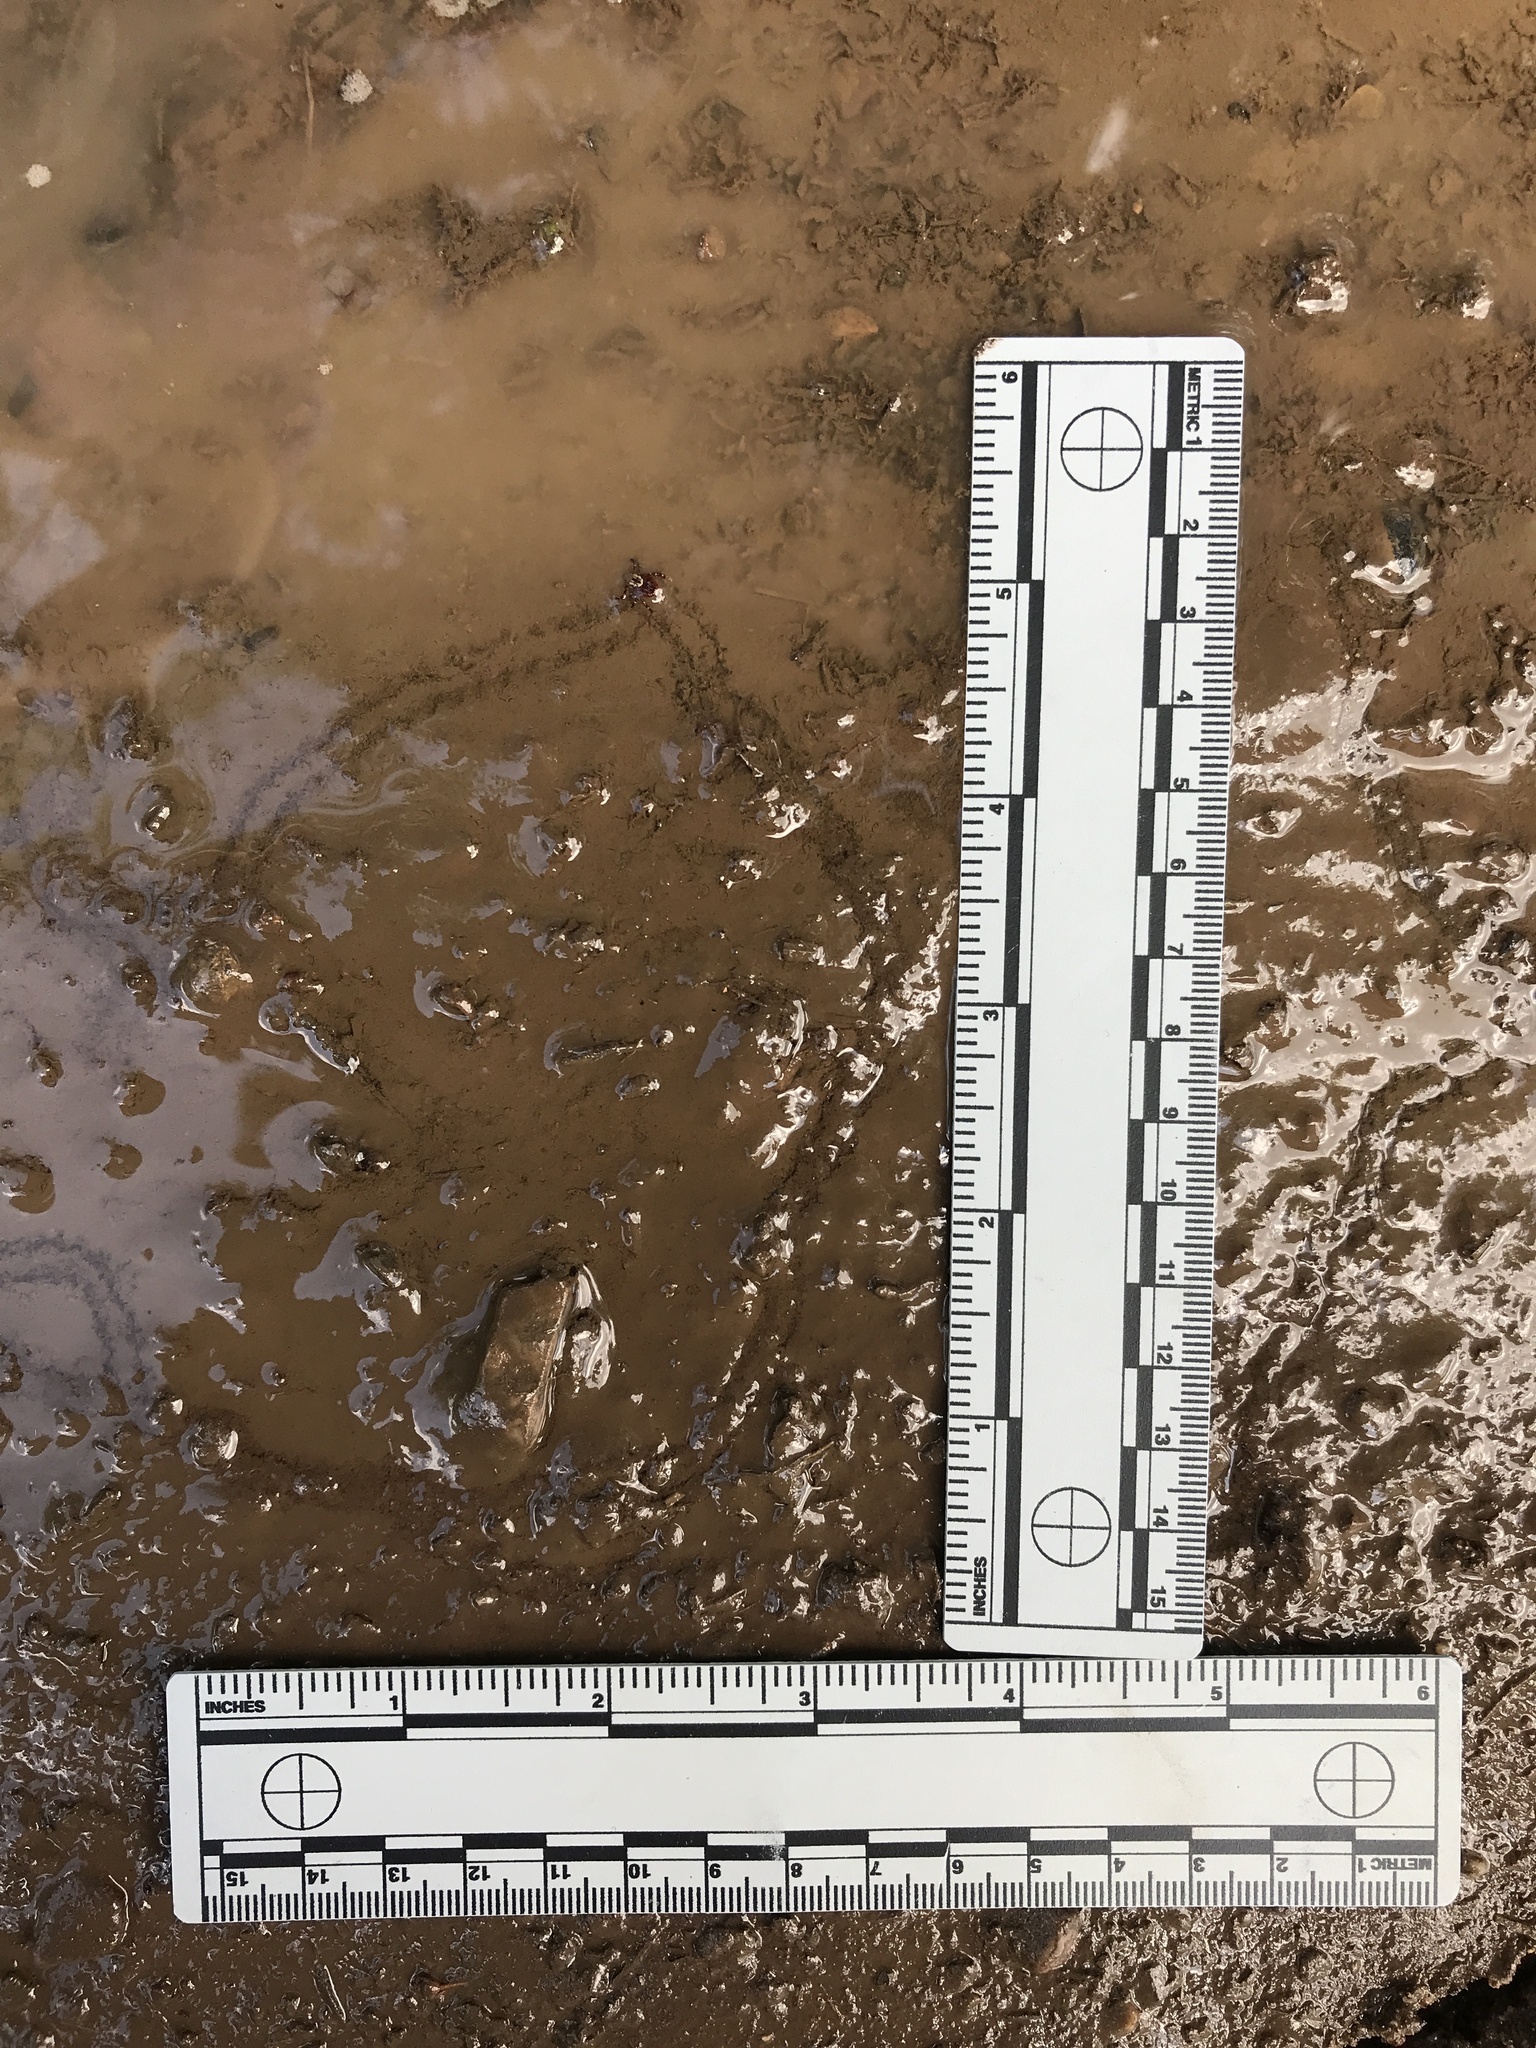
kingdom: Animalia
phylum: Arthropoda
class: Arachnida
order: Ixodida
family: Ixodidae
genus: Dermacentor
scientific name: Dermacentor variabilis
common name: American dog tick
